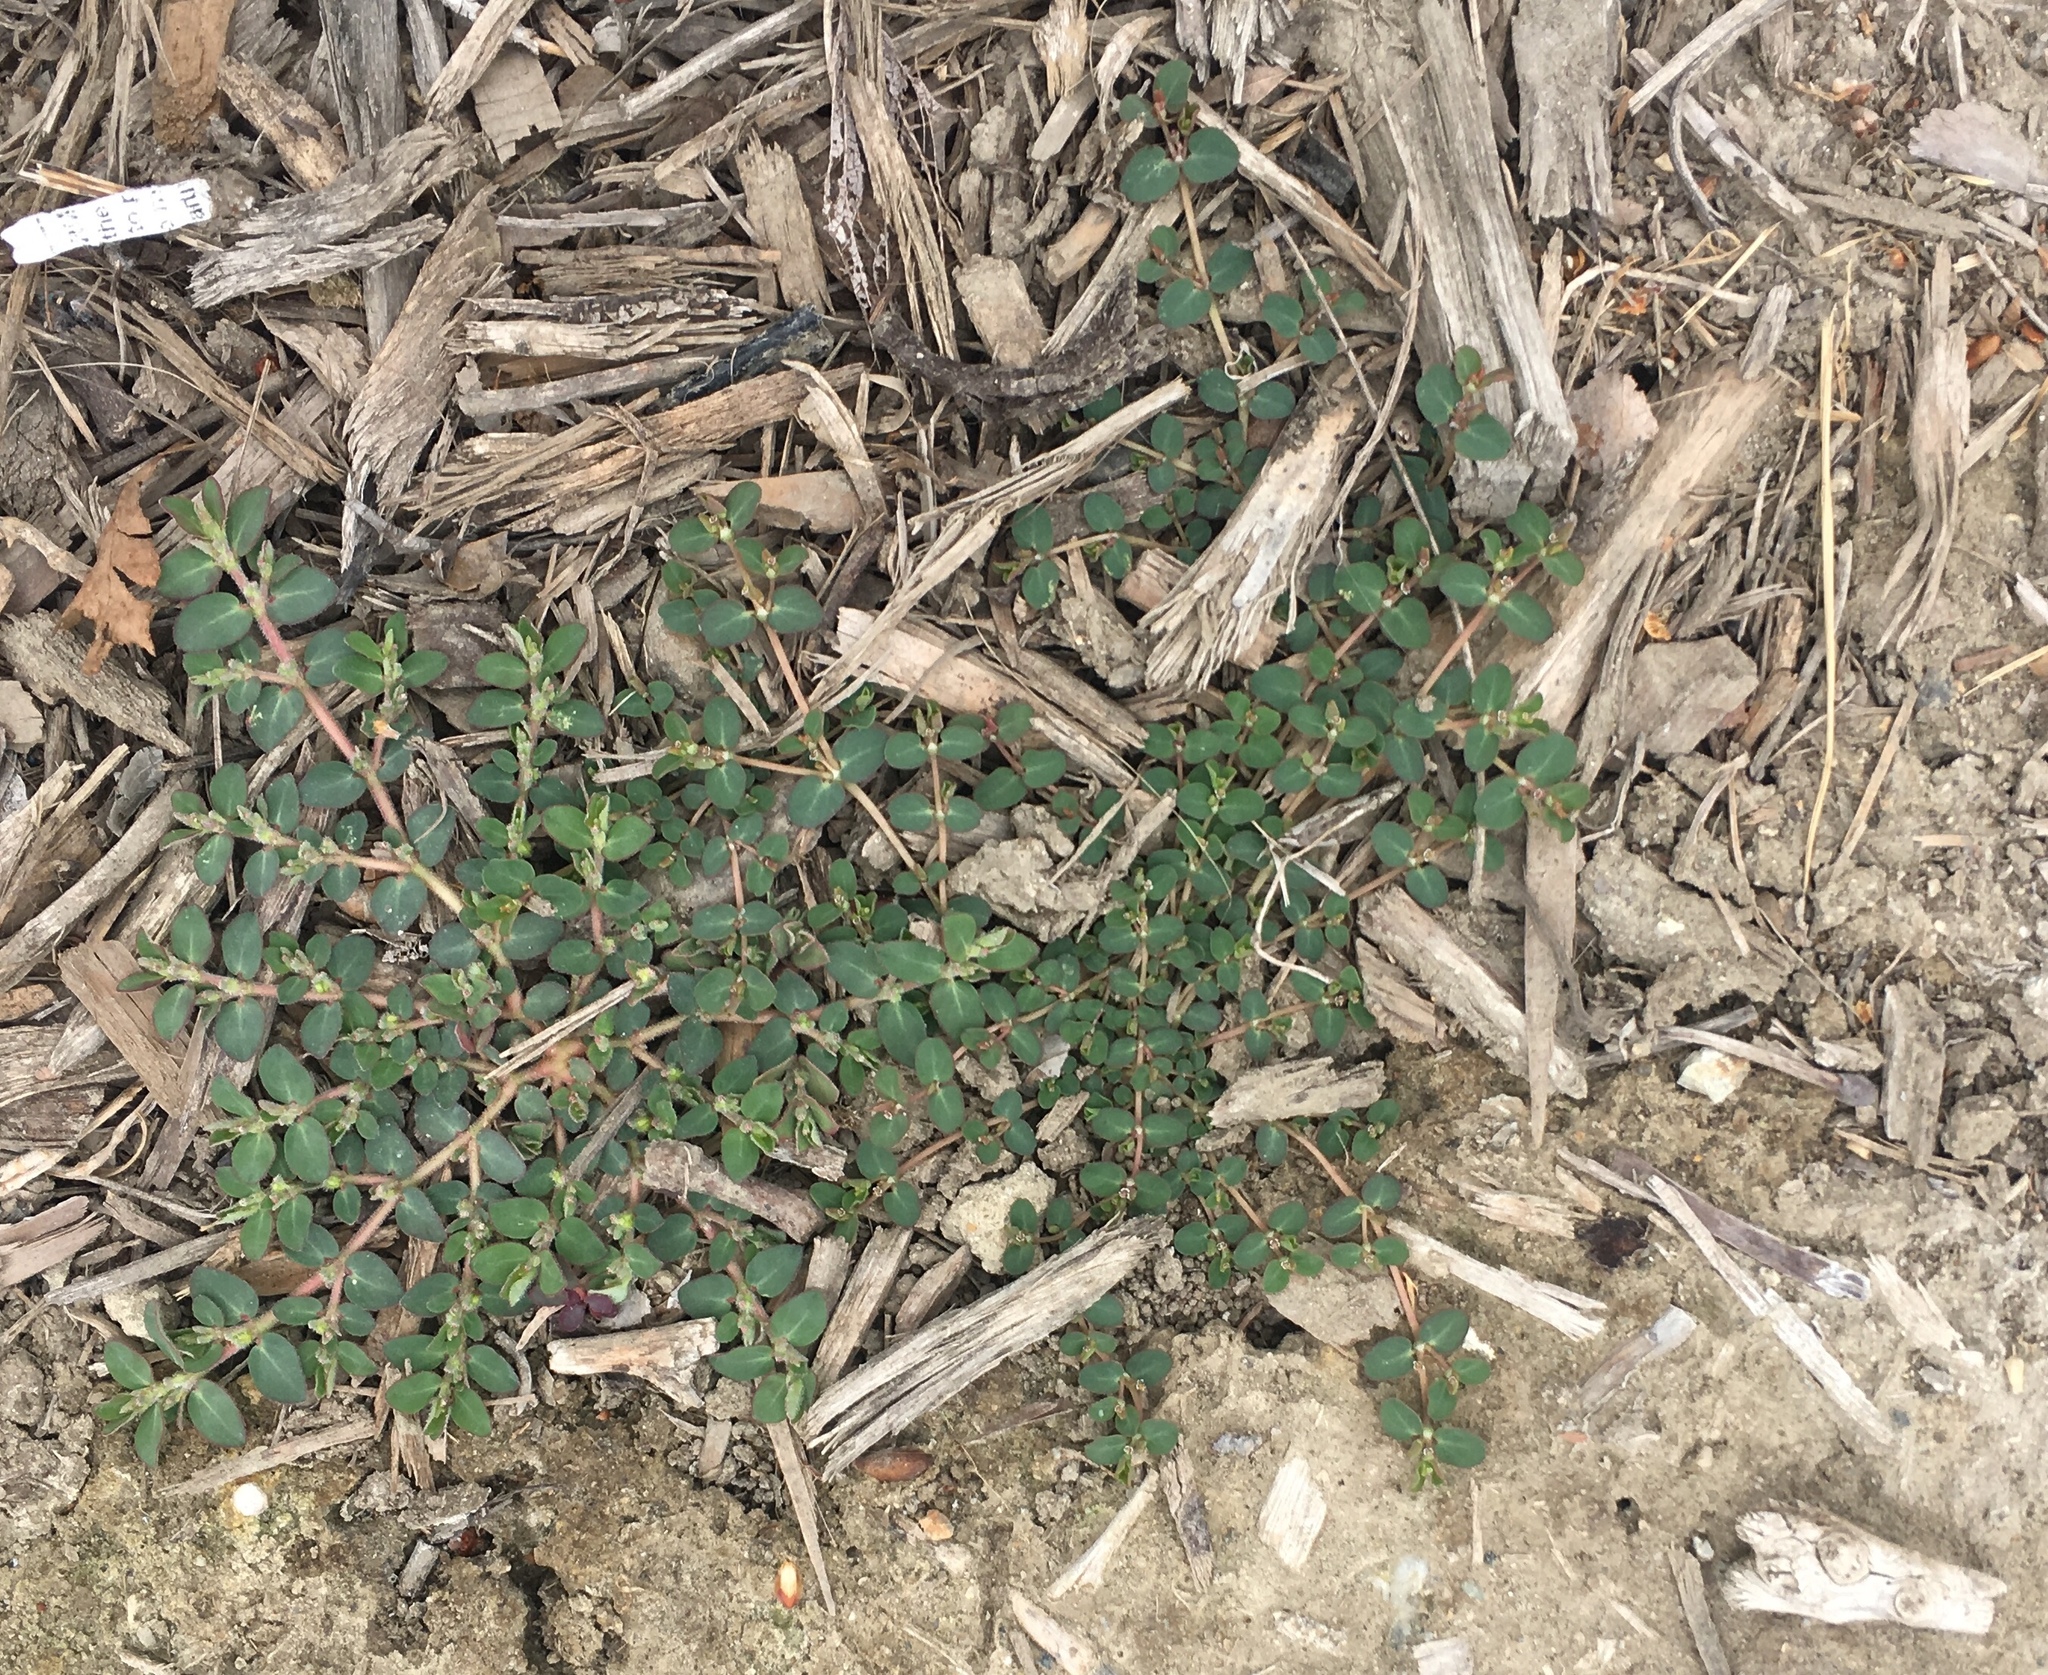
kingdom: Plantae
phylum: Tracheophyta
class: Magnoliopsida
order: Malpighiales
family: Euphorbiaceae
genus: Euphorbia
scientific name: Euphorbia prostrata
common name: Prostrate sandmat
